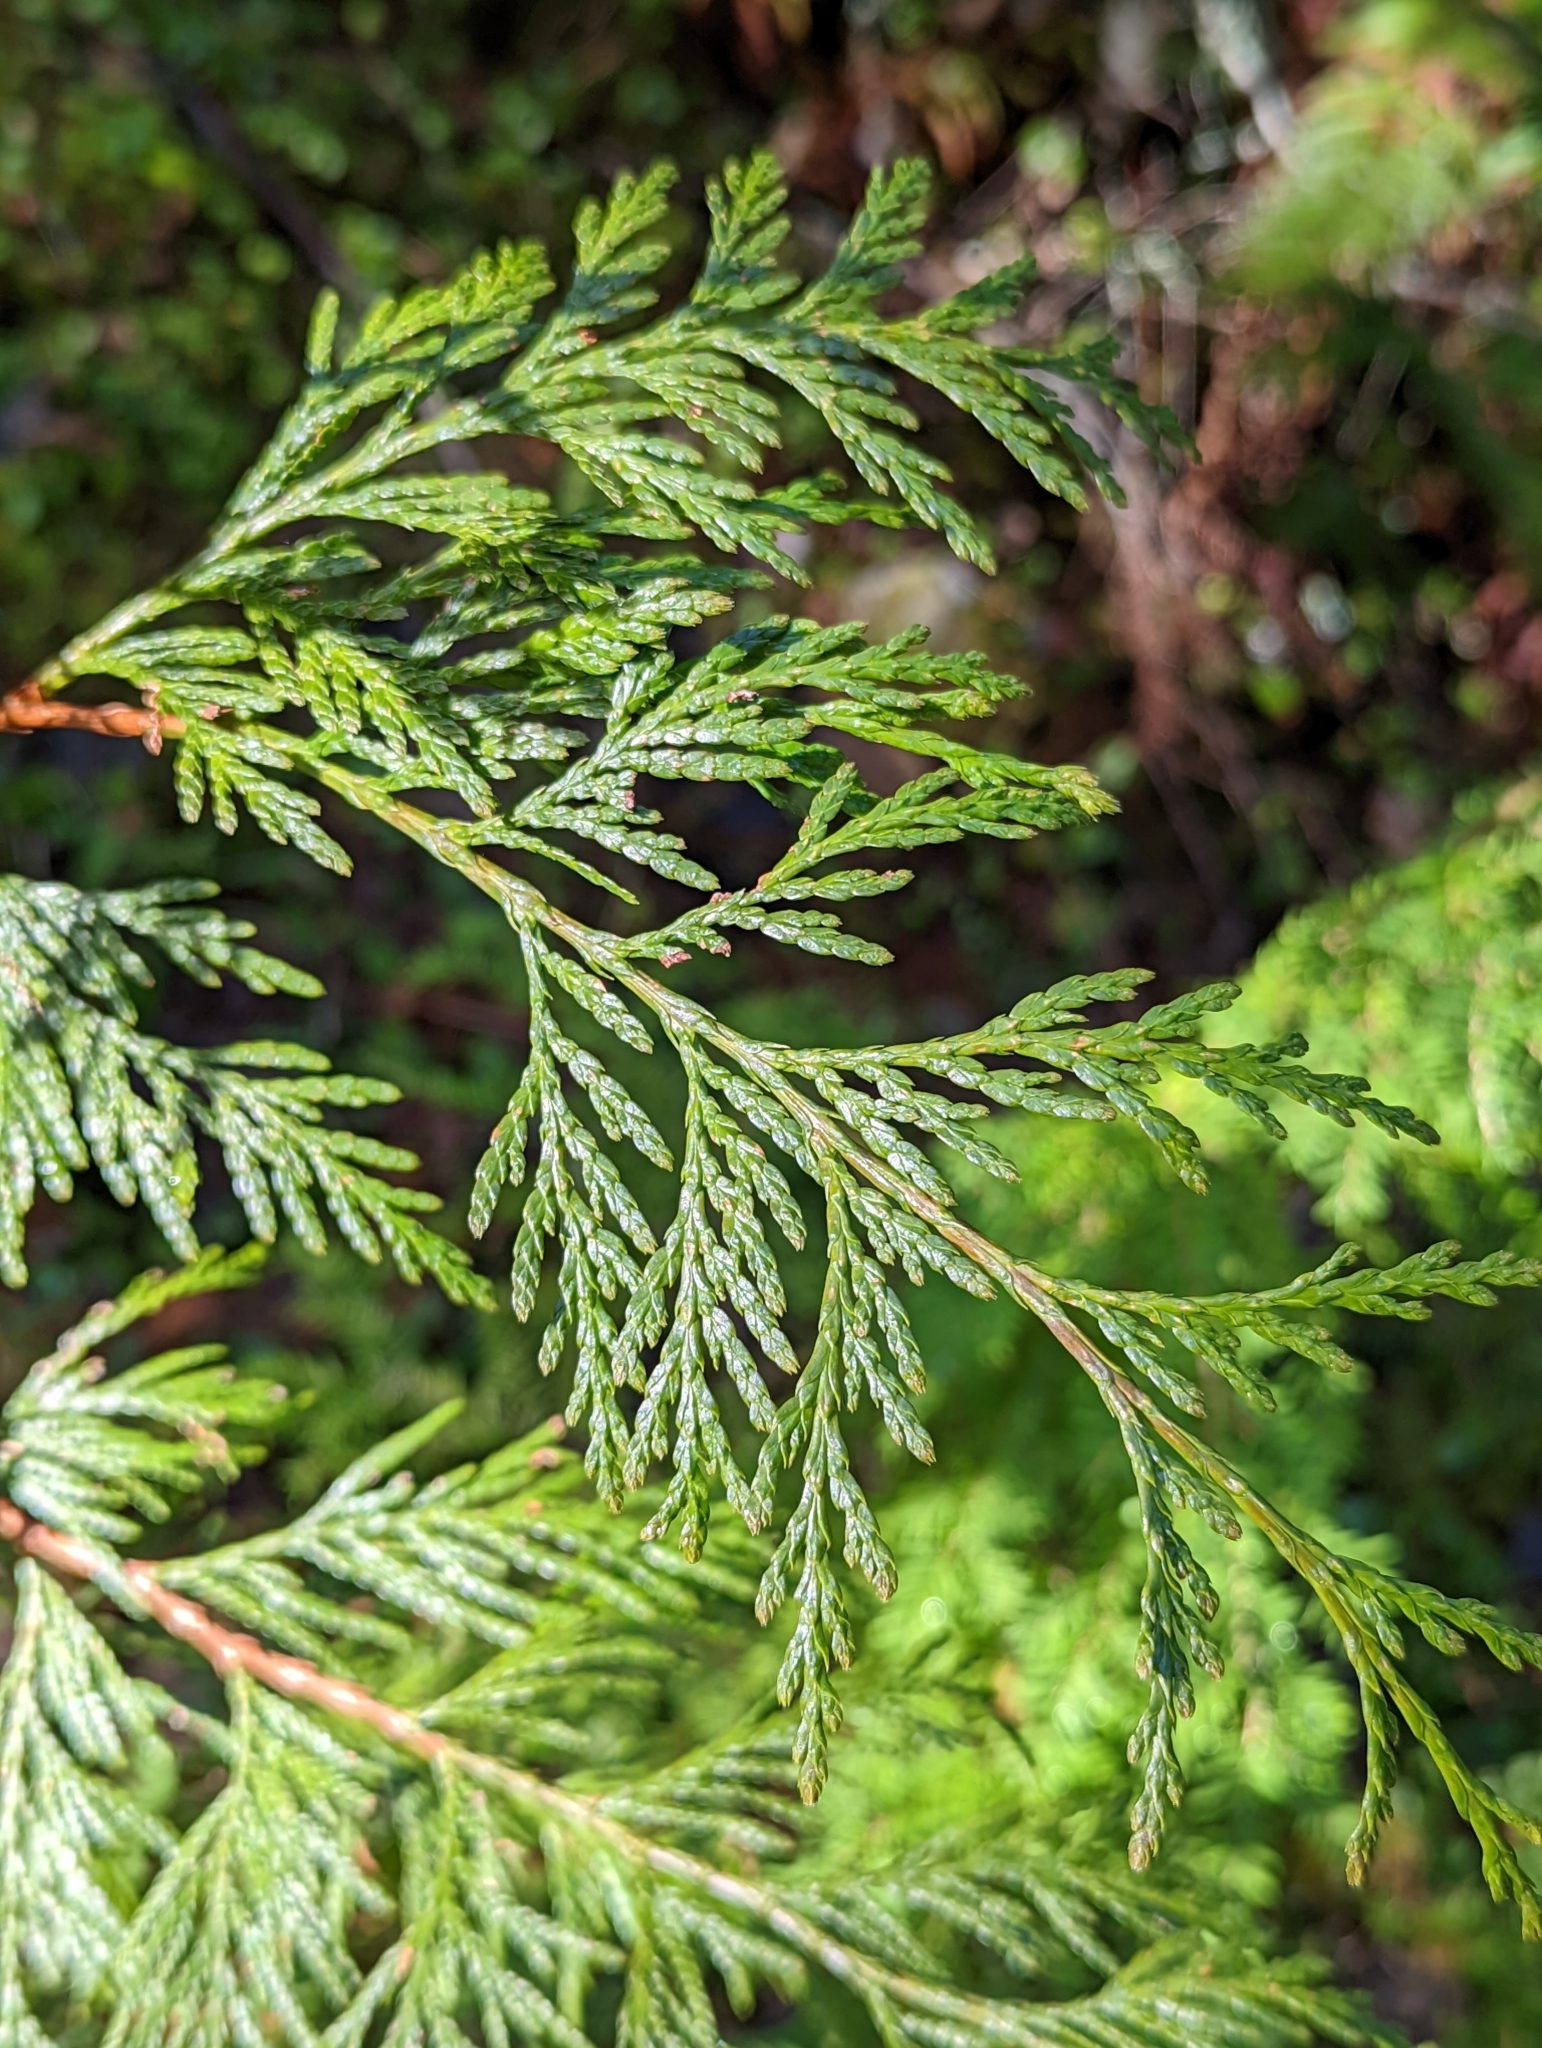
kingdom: Plantae
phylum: Tracheophyta
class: Pinopsida
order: Pinales
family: Cupressaceae
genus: Thuja
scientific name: Thuja plicata
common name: Western red-cedar
